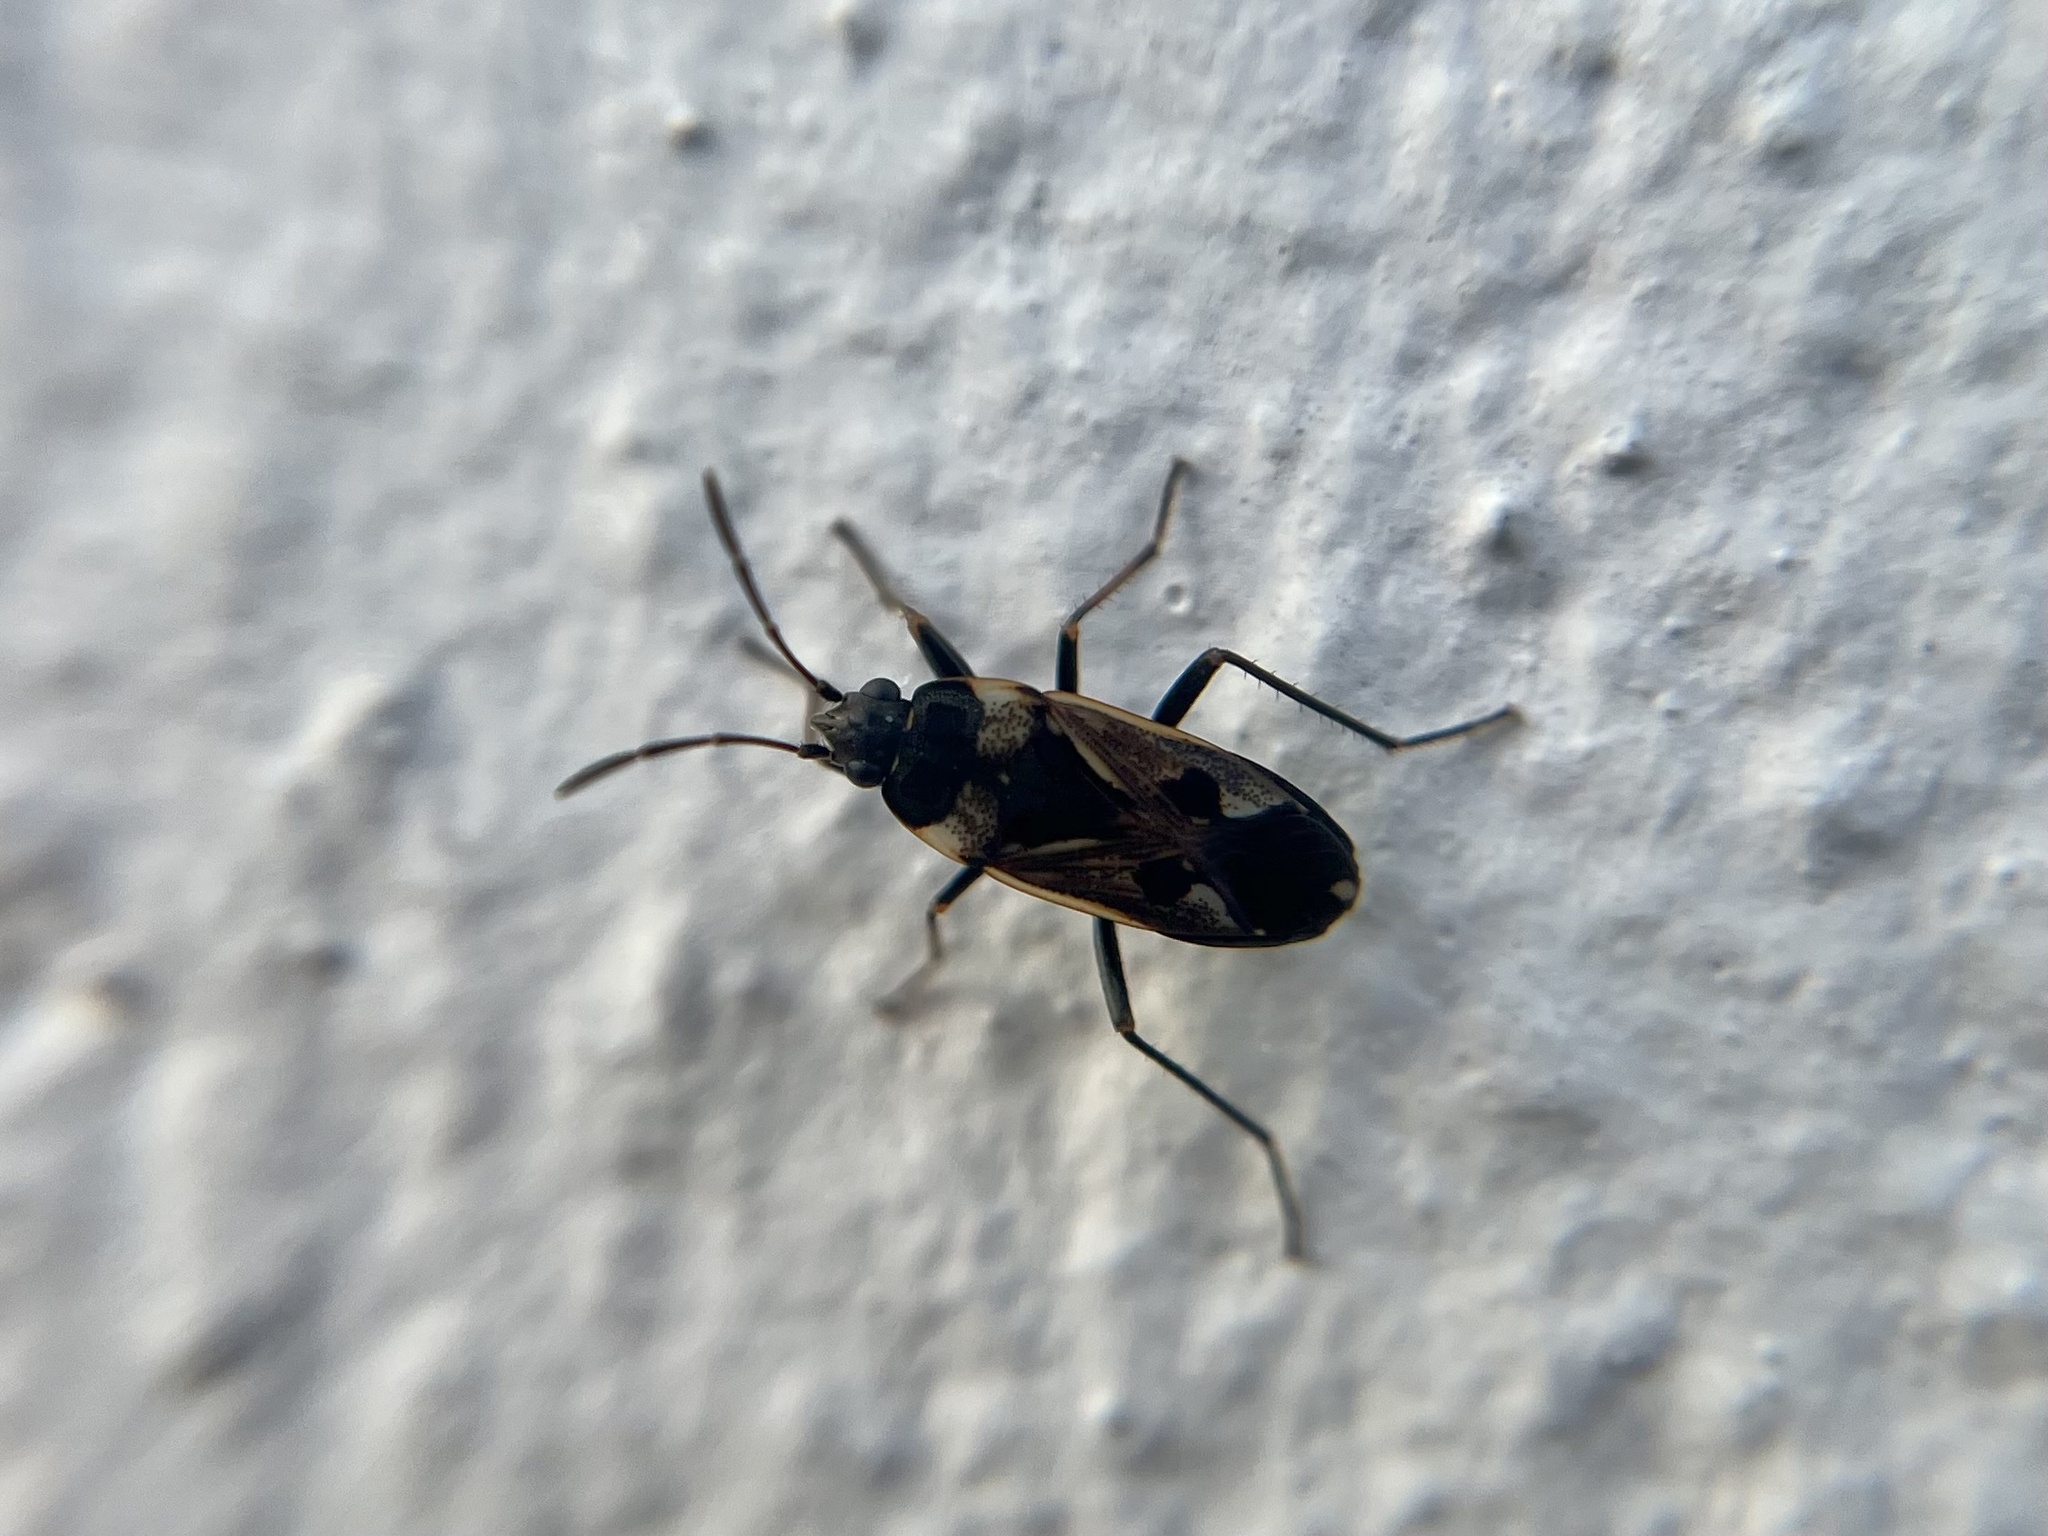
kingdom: Animalia
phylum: Arthropoda
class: Insecta
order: Hemiptera
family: Rhyparochromidae
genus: Rhyparochromus
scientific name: Rhyparochromus vulgaris
